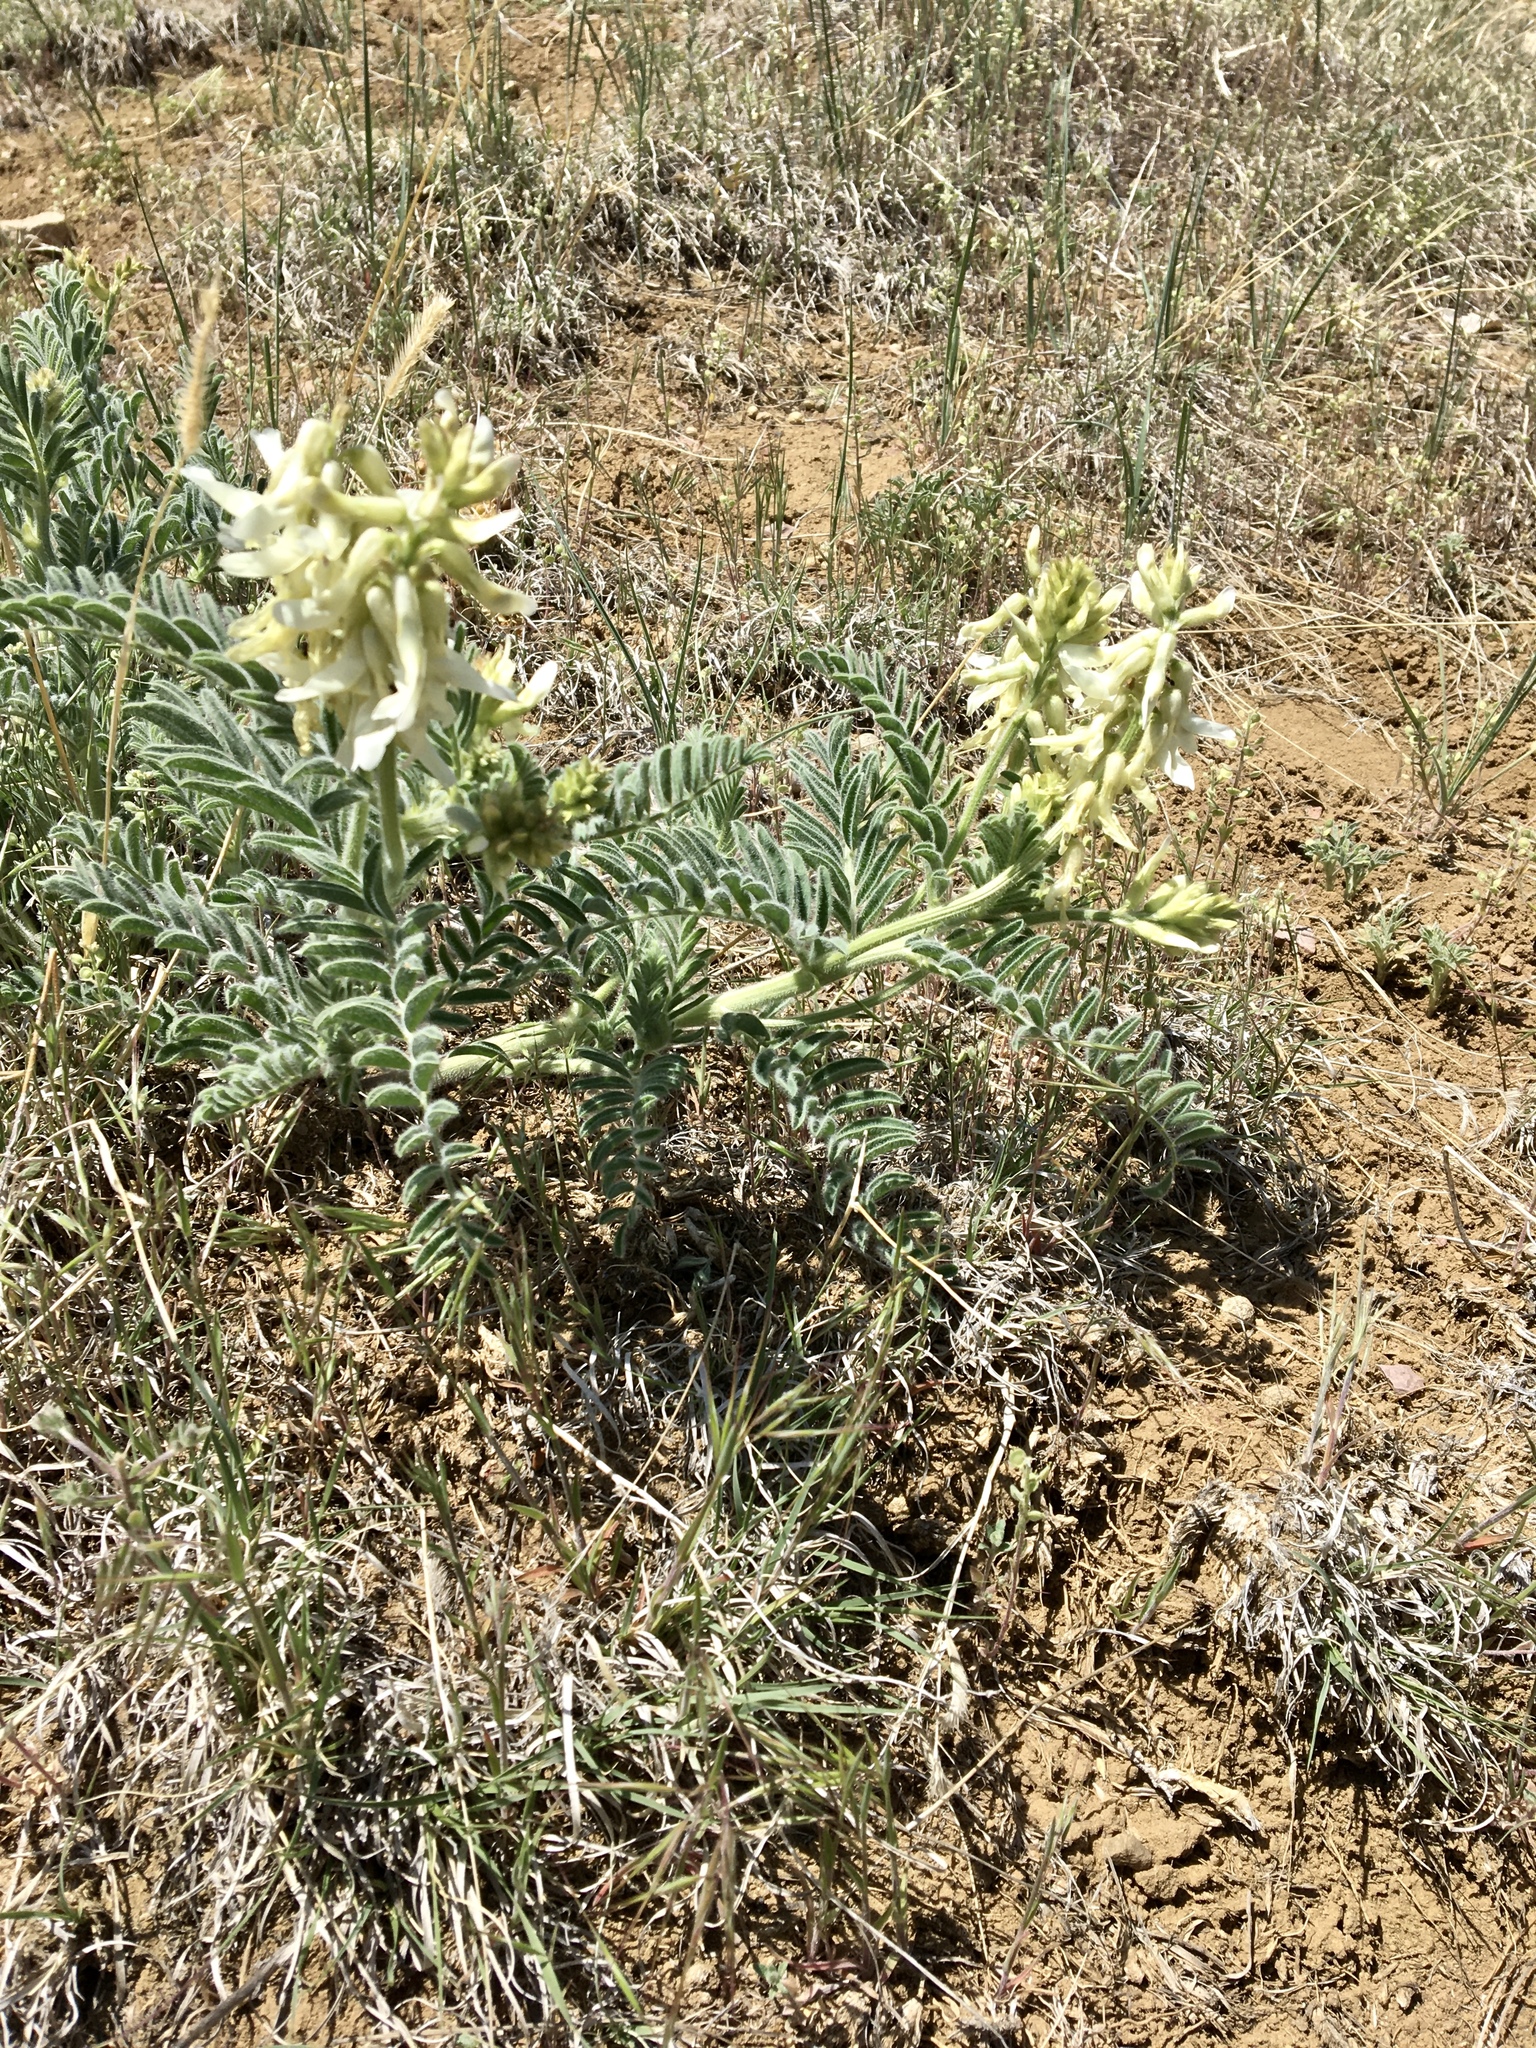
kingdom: Plantae
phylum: Tracheophyta
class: Magnoliopsida
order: Fabales
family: Fabaceae
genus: Astragalus
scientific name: Astragalus drummondii
